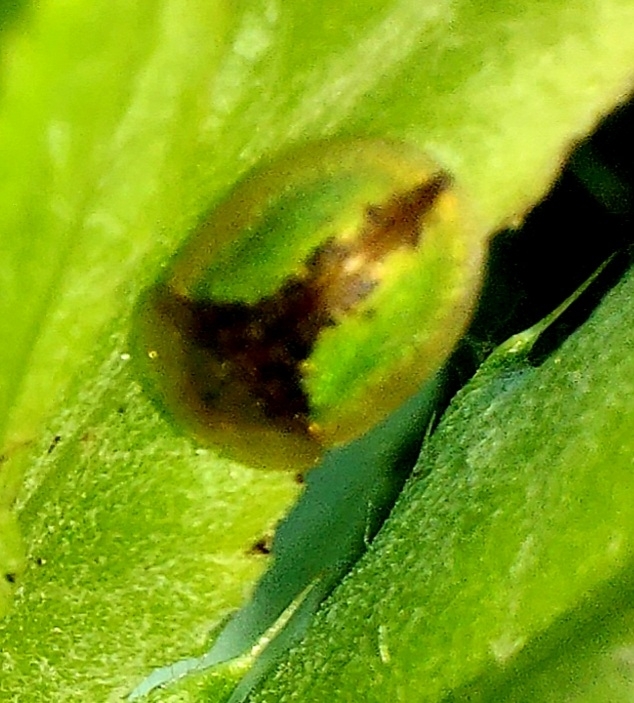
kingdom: Animalia
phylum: Arthropoda
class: Insecta
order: Coleoptera
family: Chrysomelidae
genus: Cassida
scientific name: Cassida vibex
